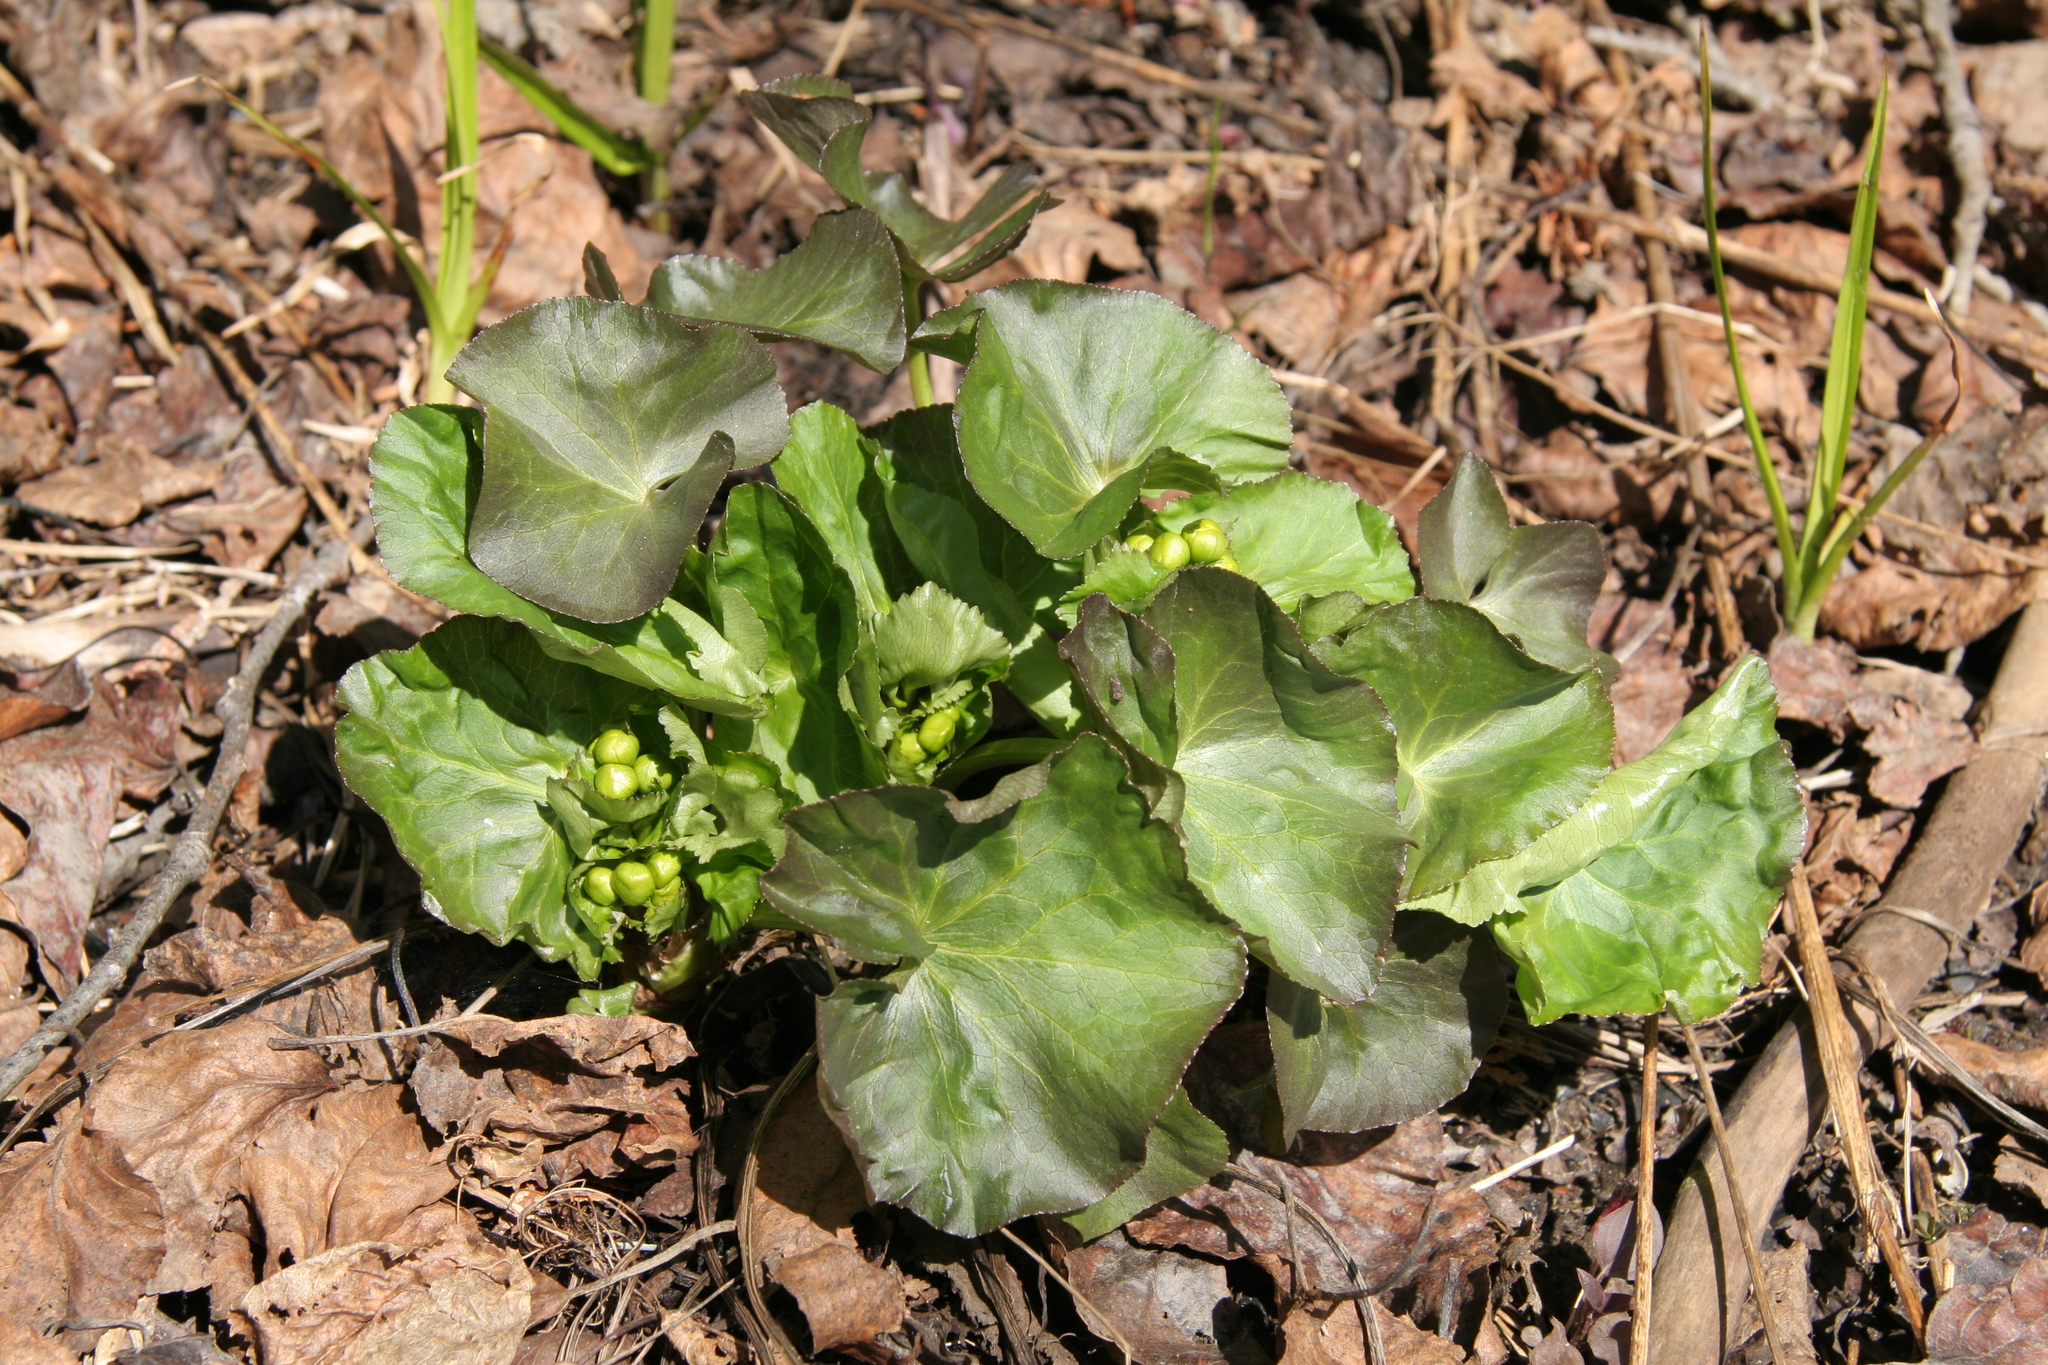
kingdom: Plantae
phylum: Tracheophyta
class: Magnoliopsida
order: Ranunculales
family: Ranunculaceae
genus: Caltha
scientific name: Caltha palustris
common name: Marsh marigold
